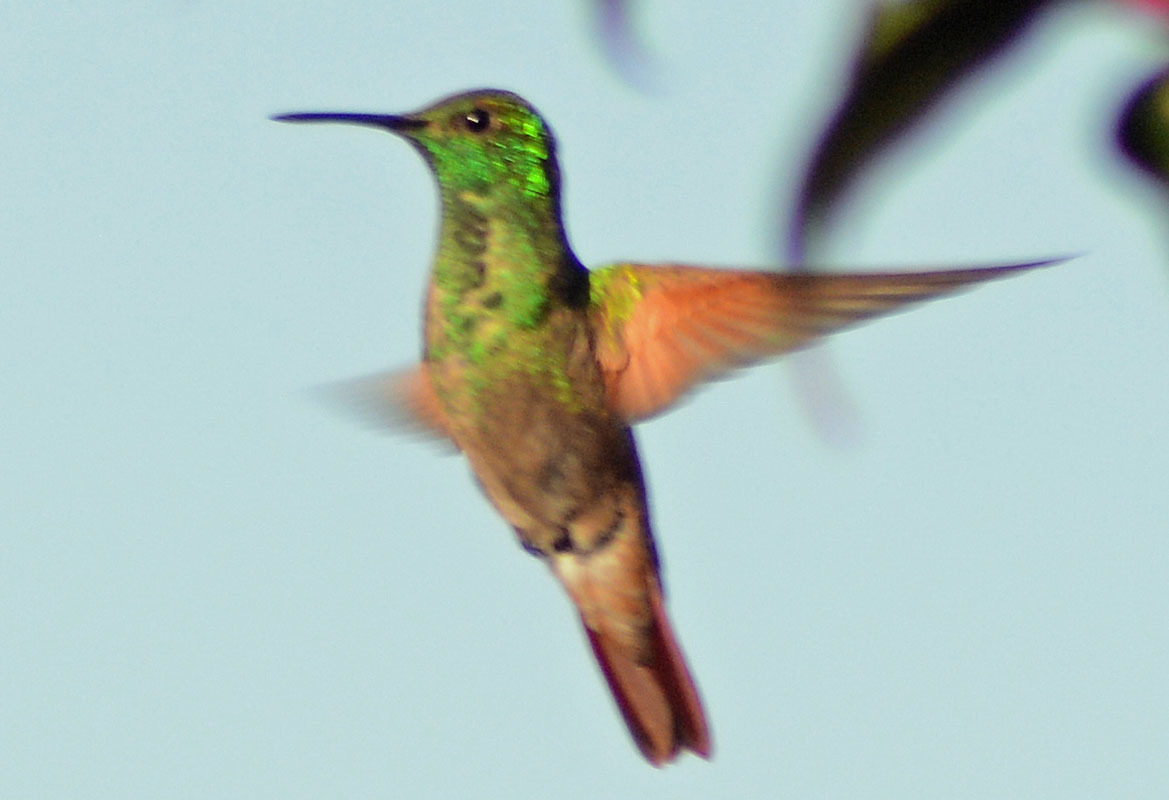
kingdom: Animalia
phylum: Chordata
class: Aves
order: Apodiformes
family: Trochilidae
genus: Saucerottia
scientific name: Saucerottia beryllina
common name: Berylline hummingbird
